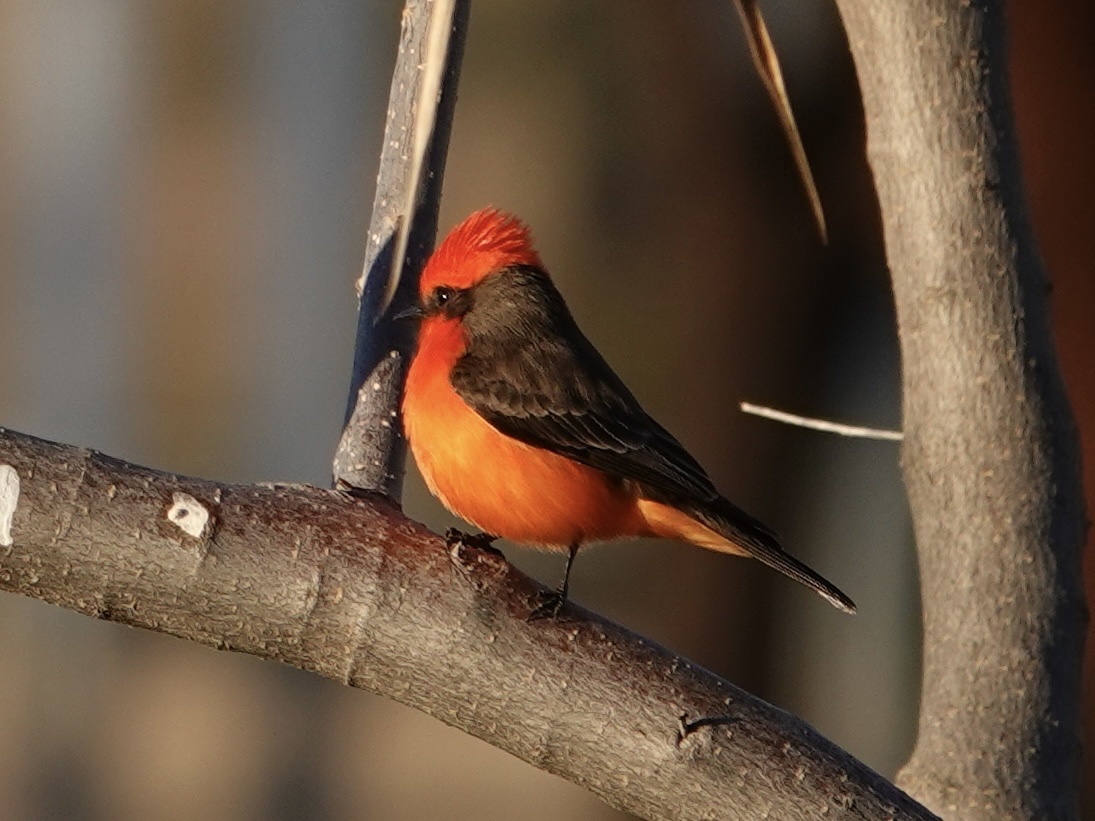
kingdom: Animalia
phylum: Chordata
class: Aves
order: Passeriformes
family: Tyrannidae
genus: Pyrocephalus
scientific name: Pyrocephalus rubinus
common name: Vermilion flycatcher
